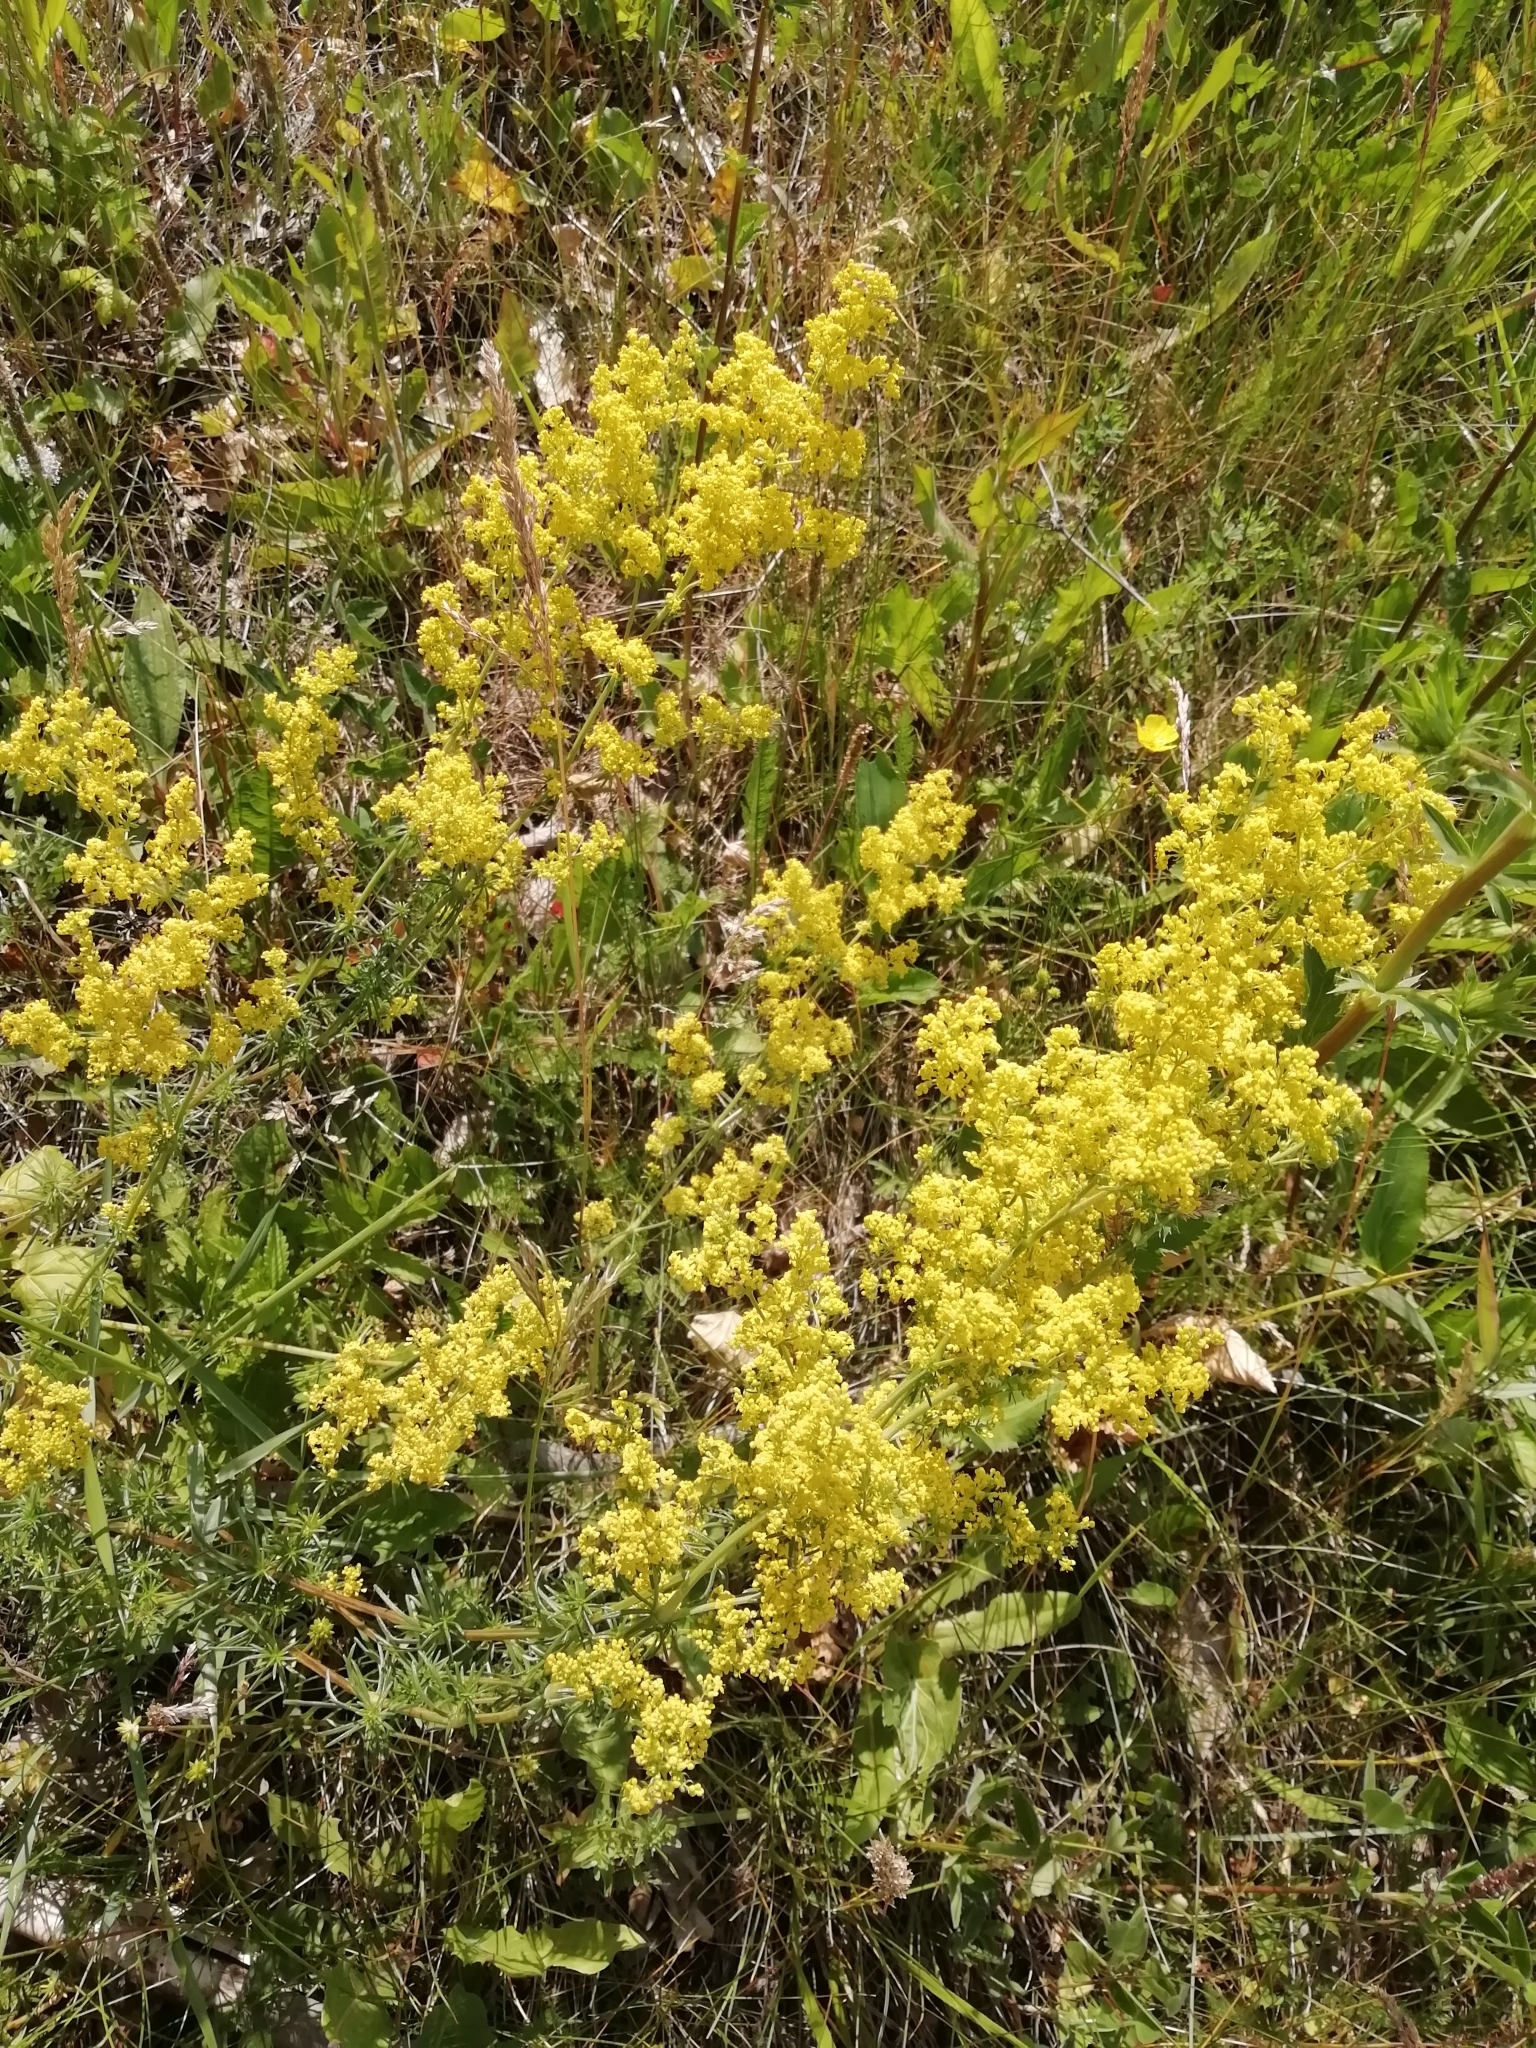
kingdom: Plantae
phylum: Tracheophyta
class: Magnoliopsida
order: Gentianales
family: Rubiaceae
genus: Galium
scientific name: Galium verum
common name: Lady's bedstraw
